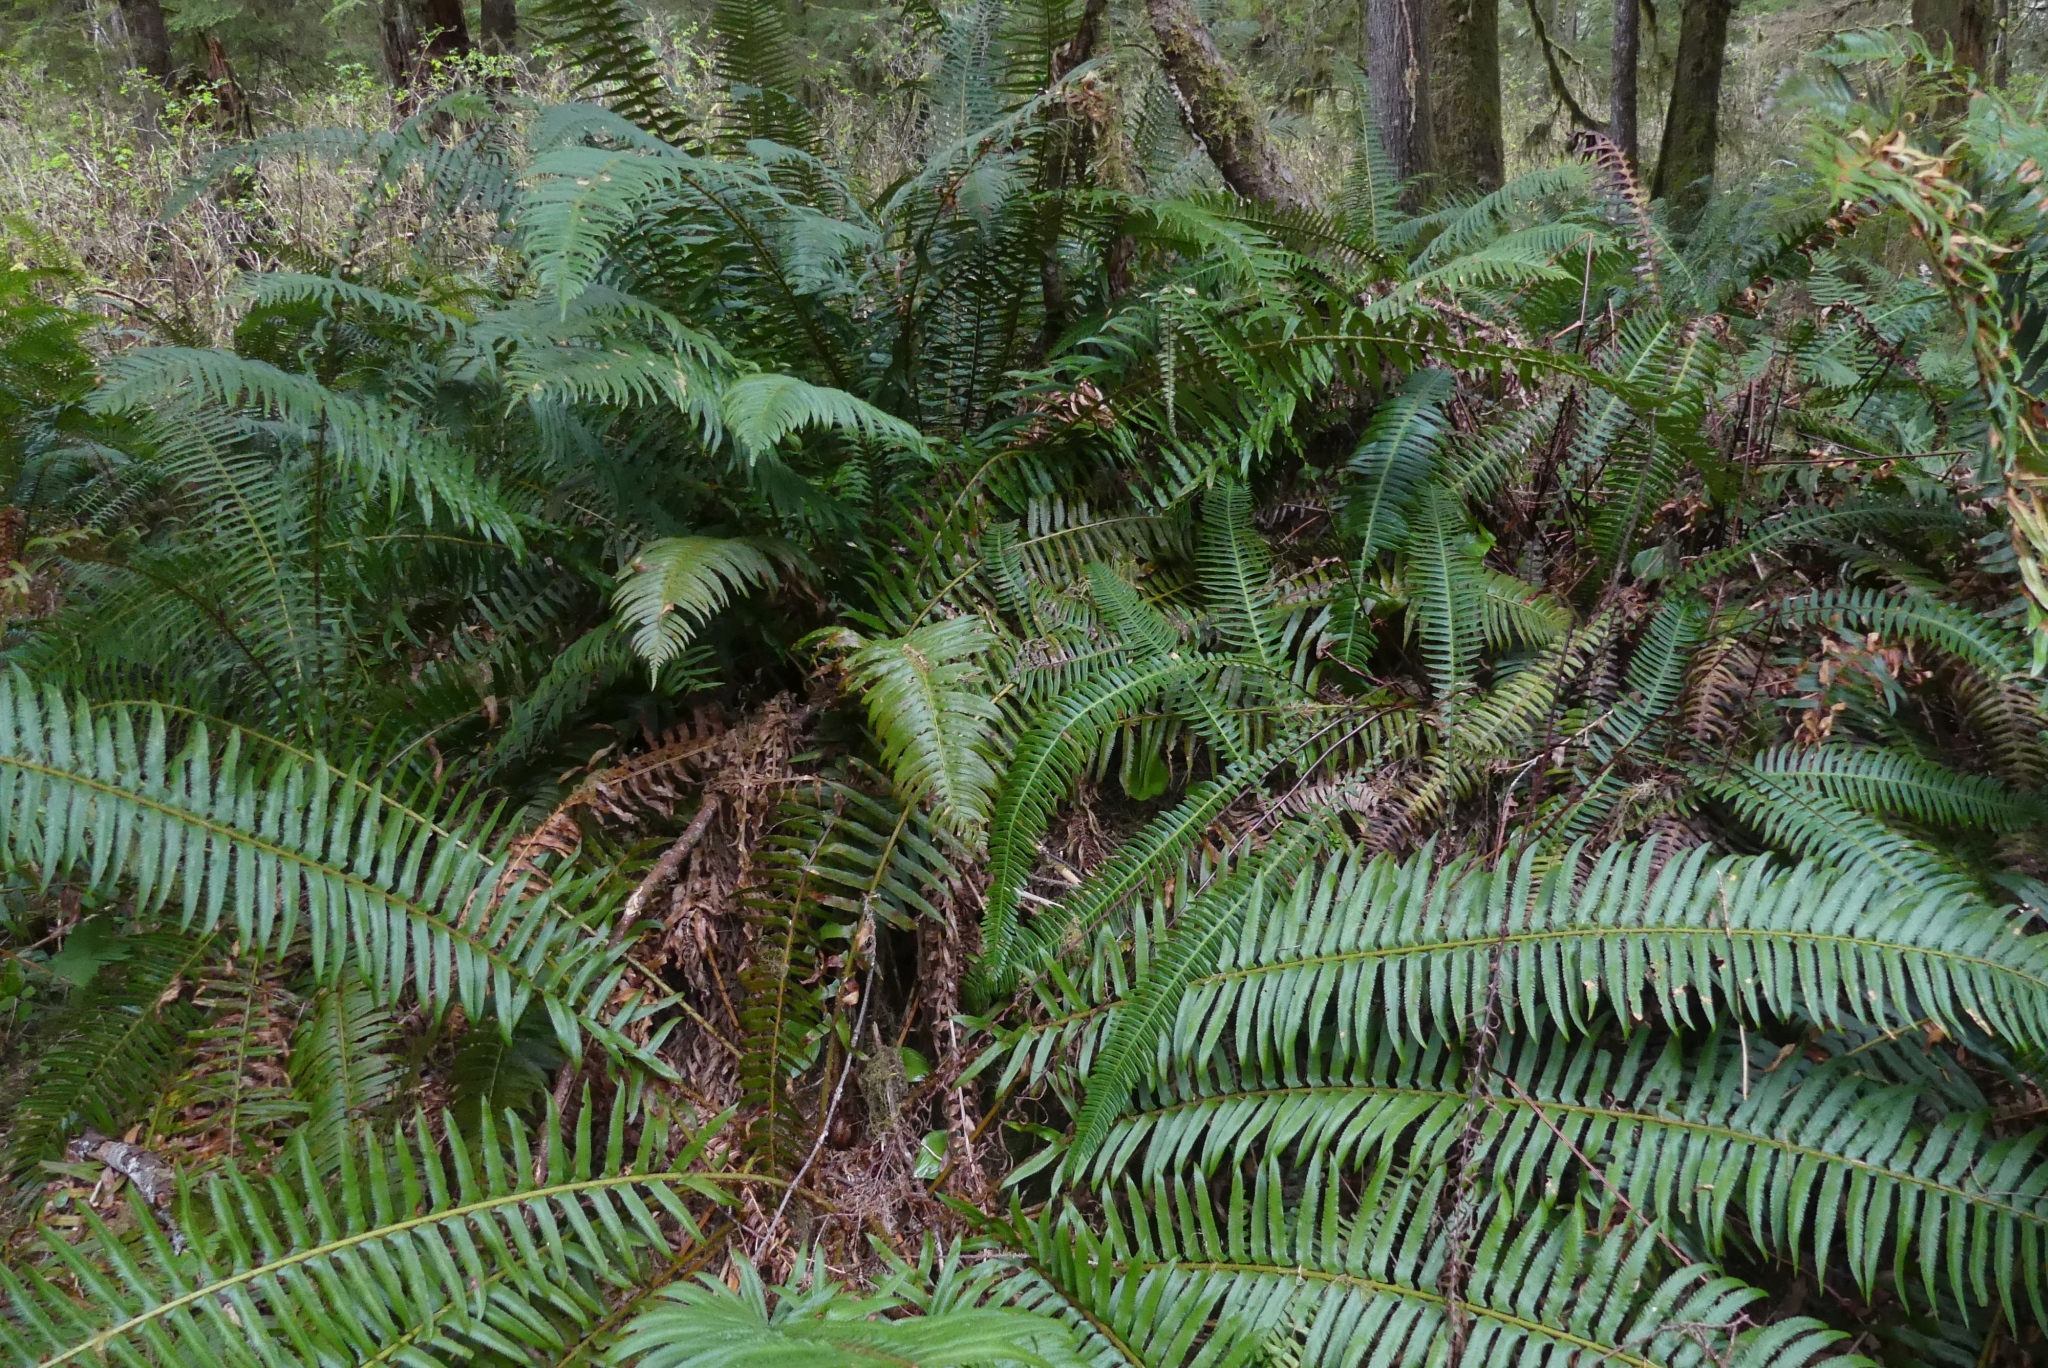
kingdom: Plantae
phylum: Tracheophyta
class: Polypodiopsida
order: Polypodiales
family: Dryopteridaceae
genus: Polystichum
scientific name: Polystichum munitum
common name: Western sword-fern
